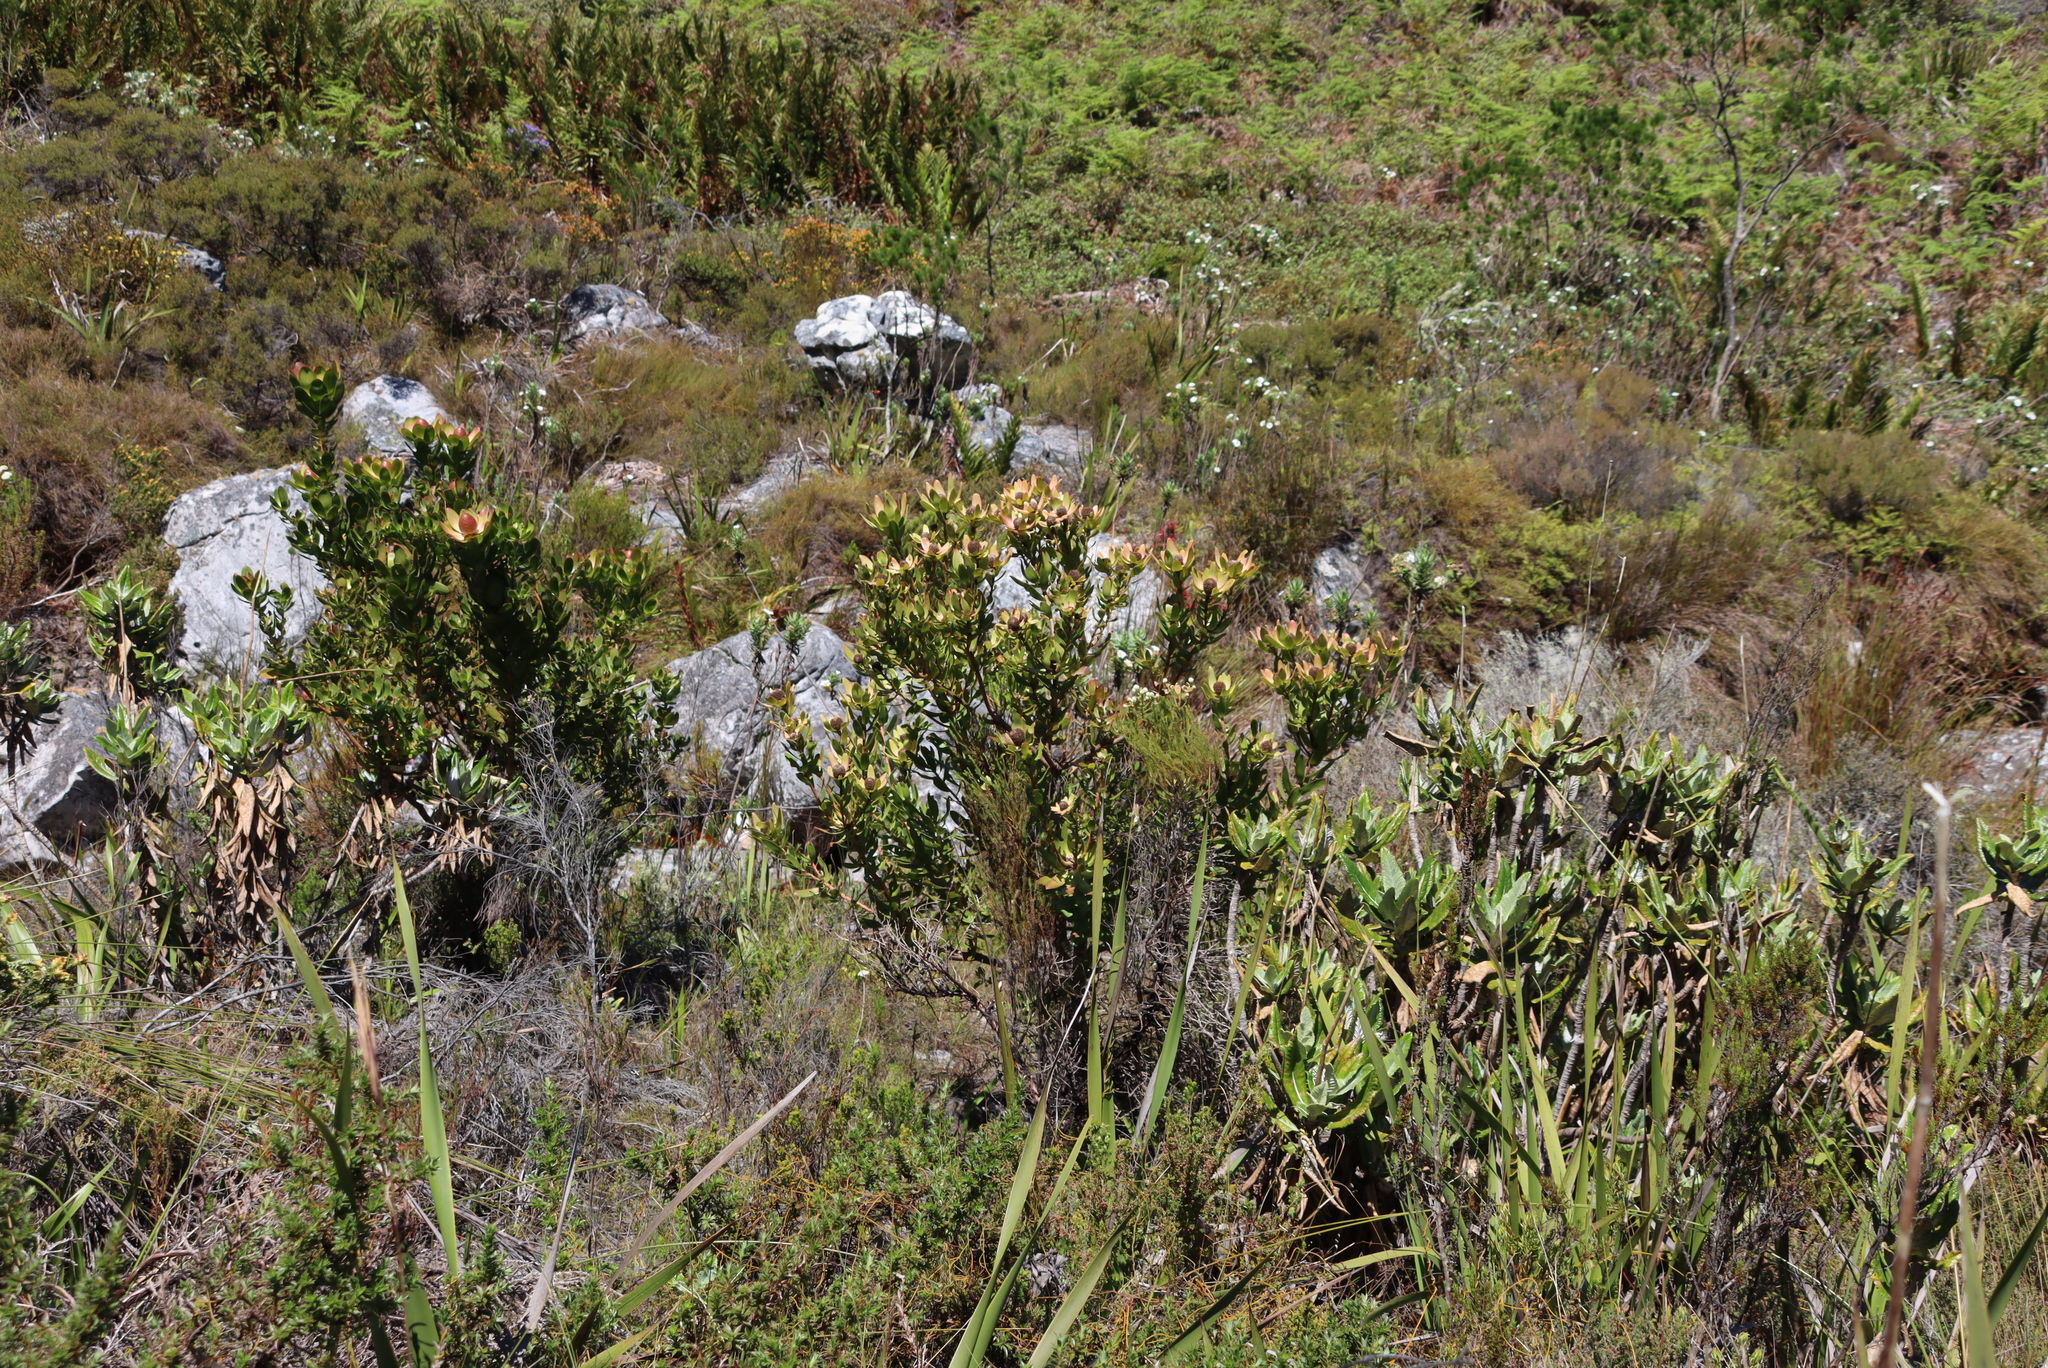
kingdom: Plantae
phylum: Tracheophyta
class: Magnoliopsida
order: Proteales
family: Proteaceae
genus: Leucadendron
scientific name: Leucadendron strobilinum
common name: Mountain rose
